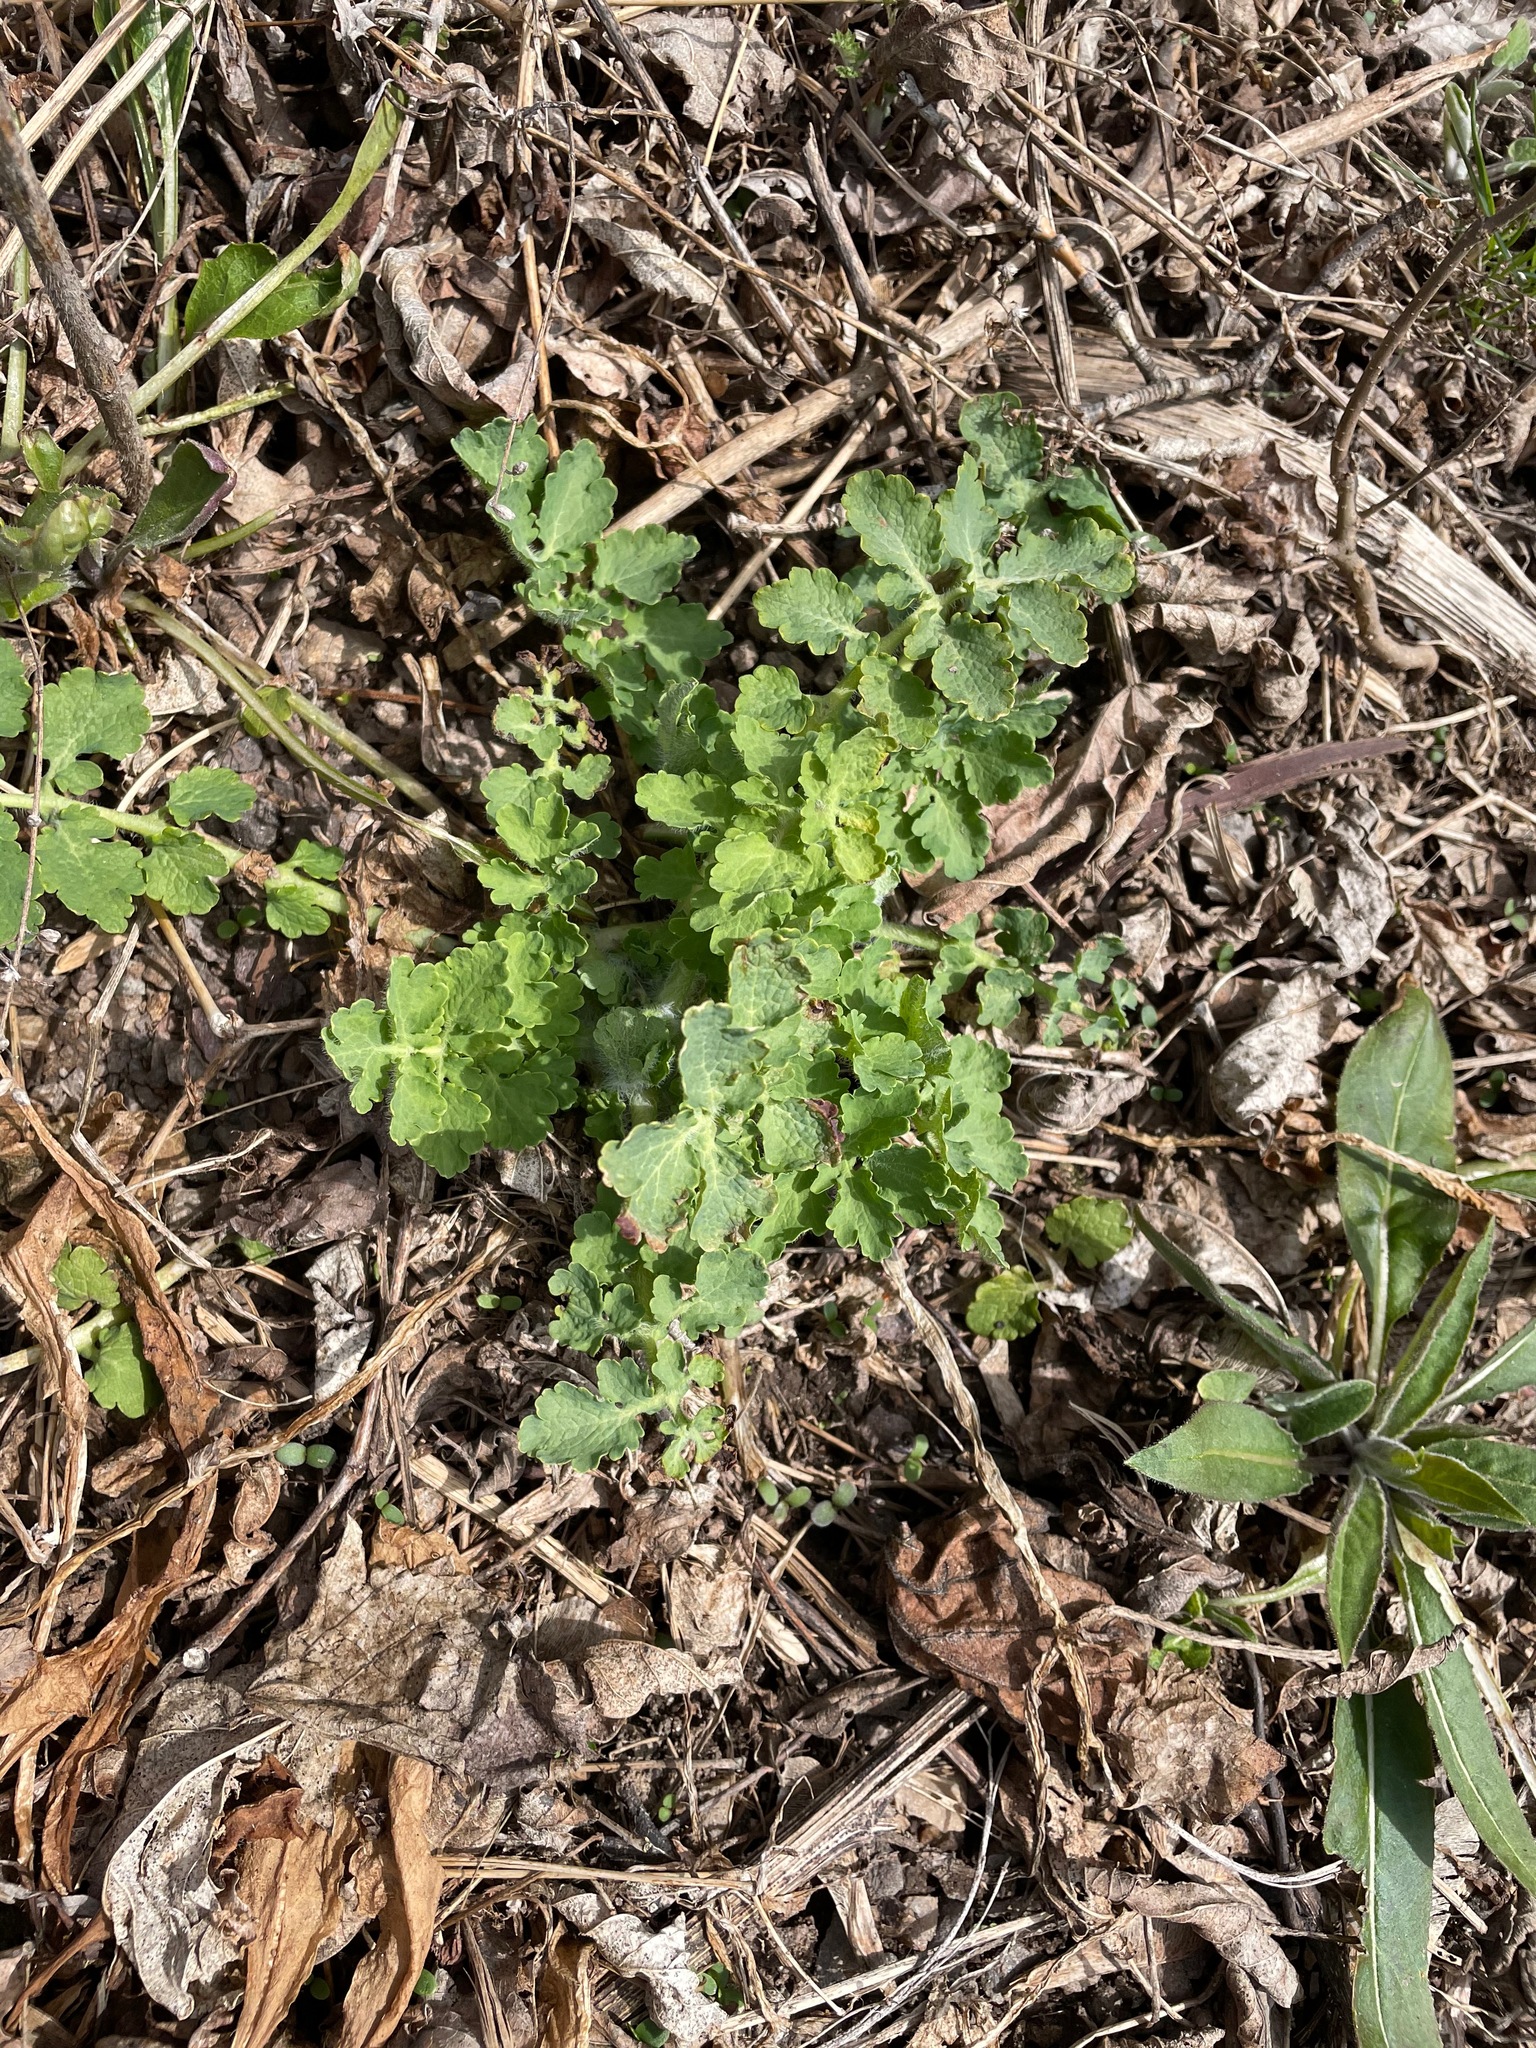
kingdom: Plantae
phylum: Tracheophyta
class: Magnoliopsida
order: Ranunculales
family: Papaveraceae
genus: Chelidonium
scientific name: Chelidonium majus
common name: Greater celandine
